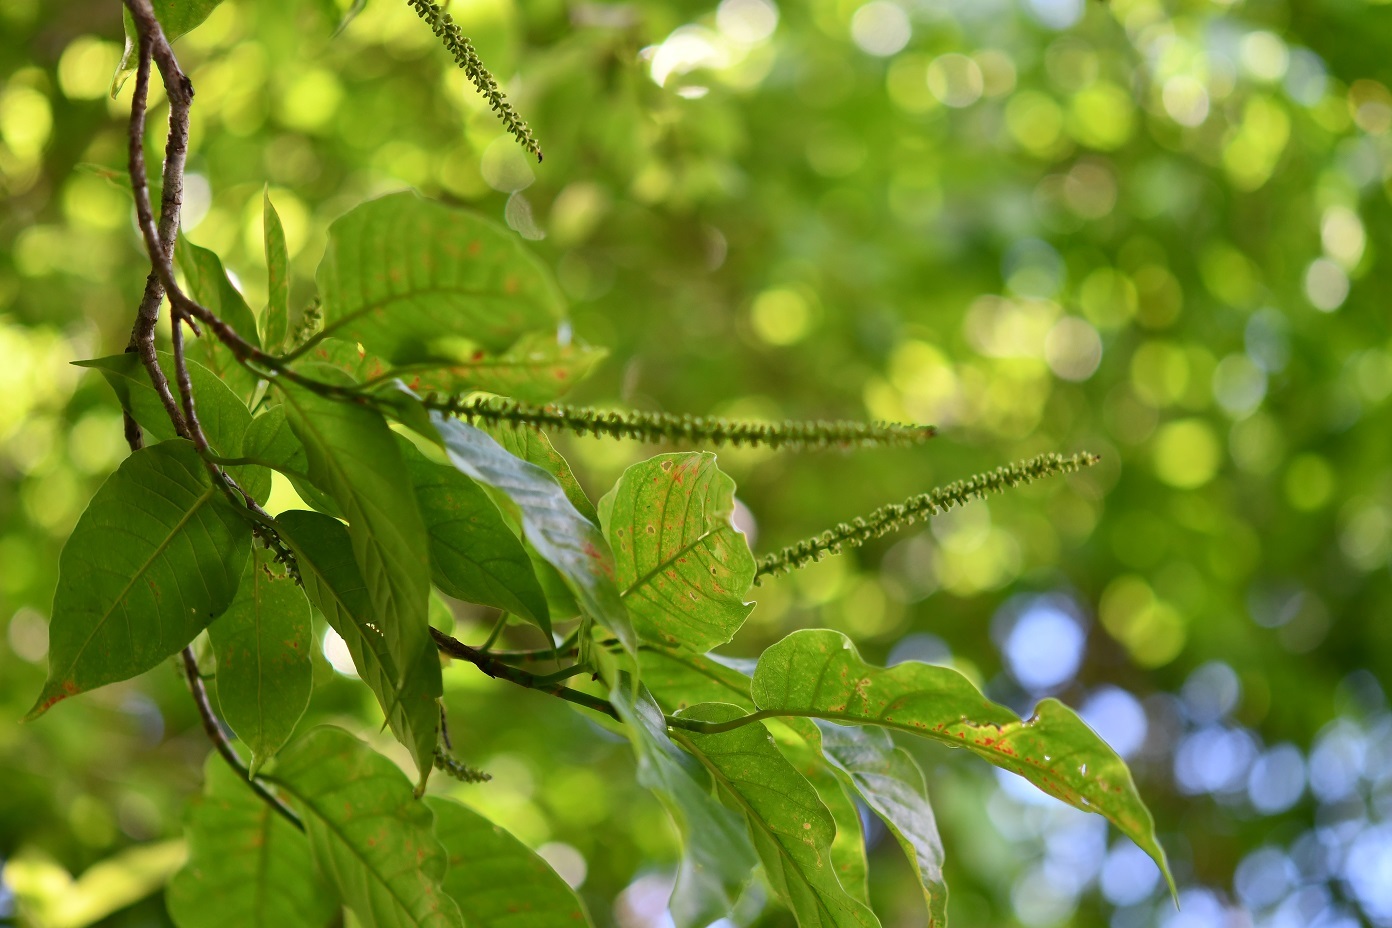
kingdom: Plantae
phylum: Tracheophyta
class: Magnoliopsida
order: Caryophyllales
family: Polygonaceae
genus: Coccoloba
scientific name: Coccoloba floresii
